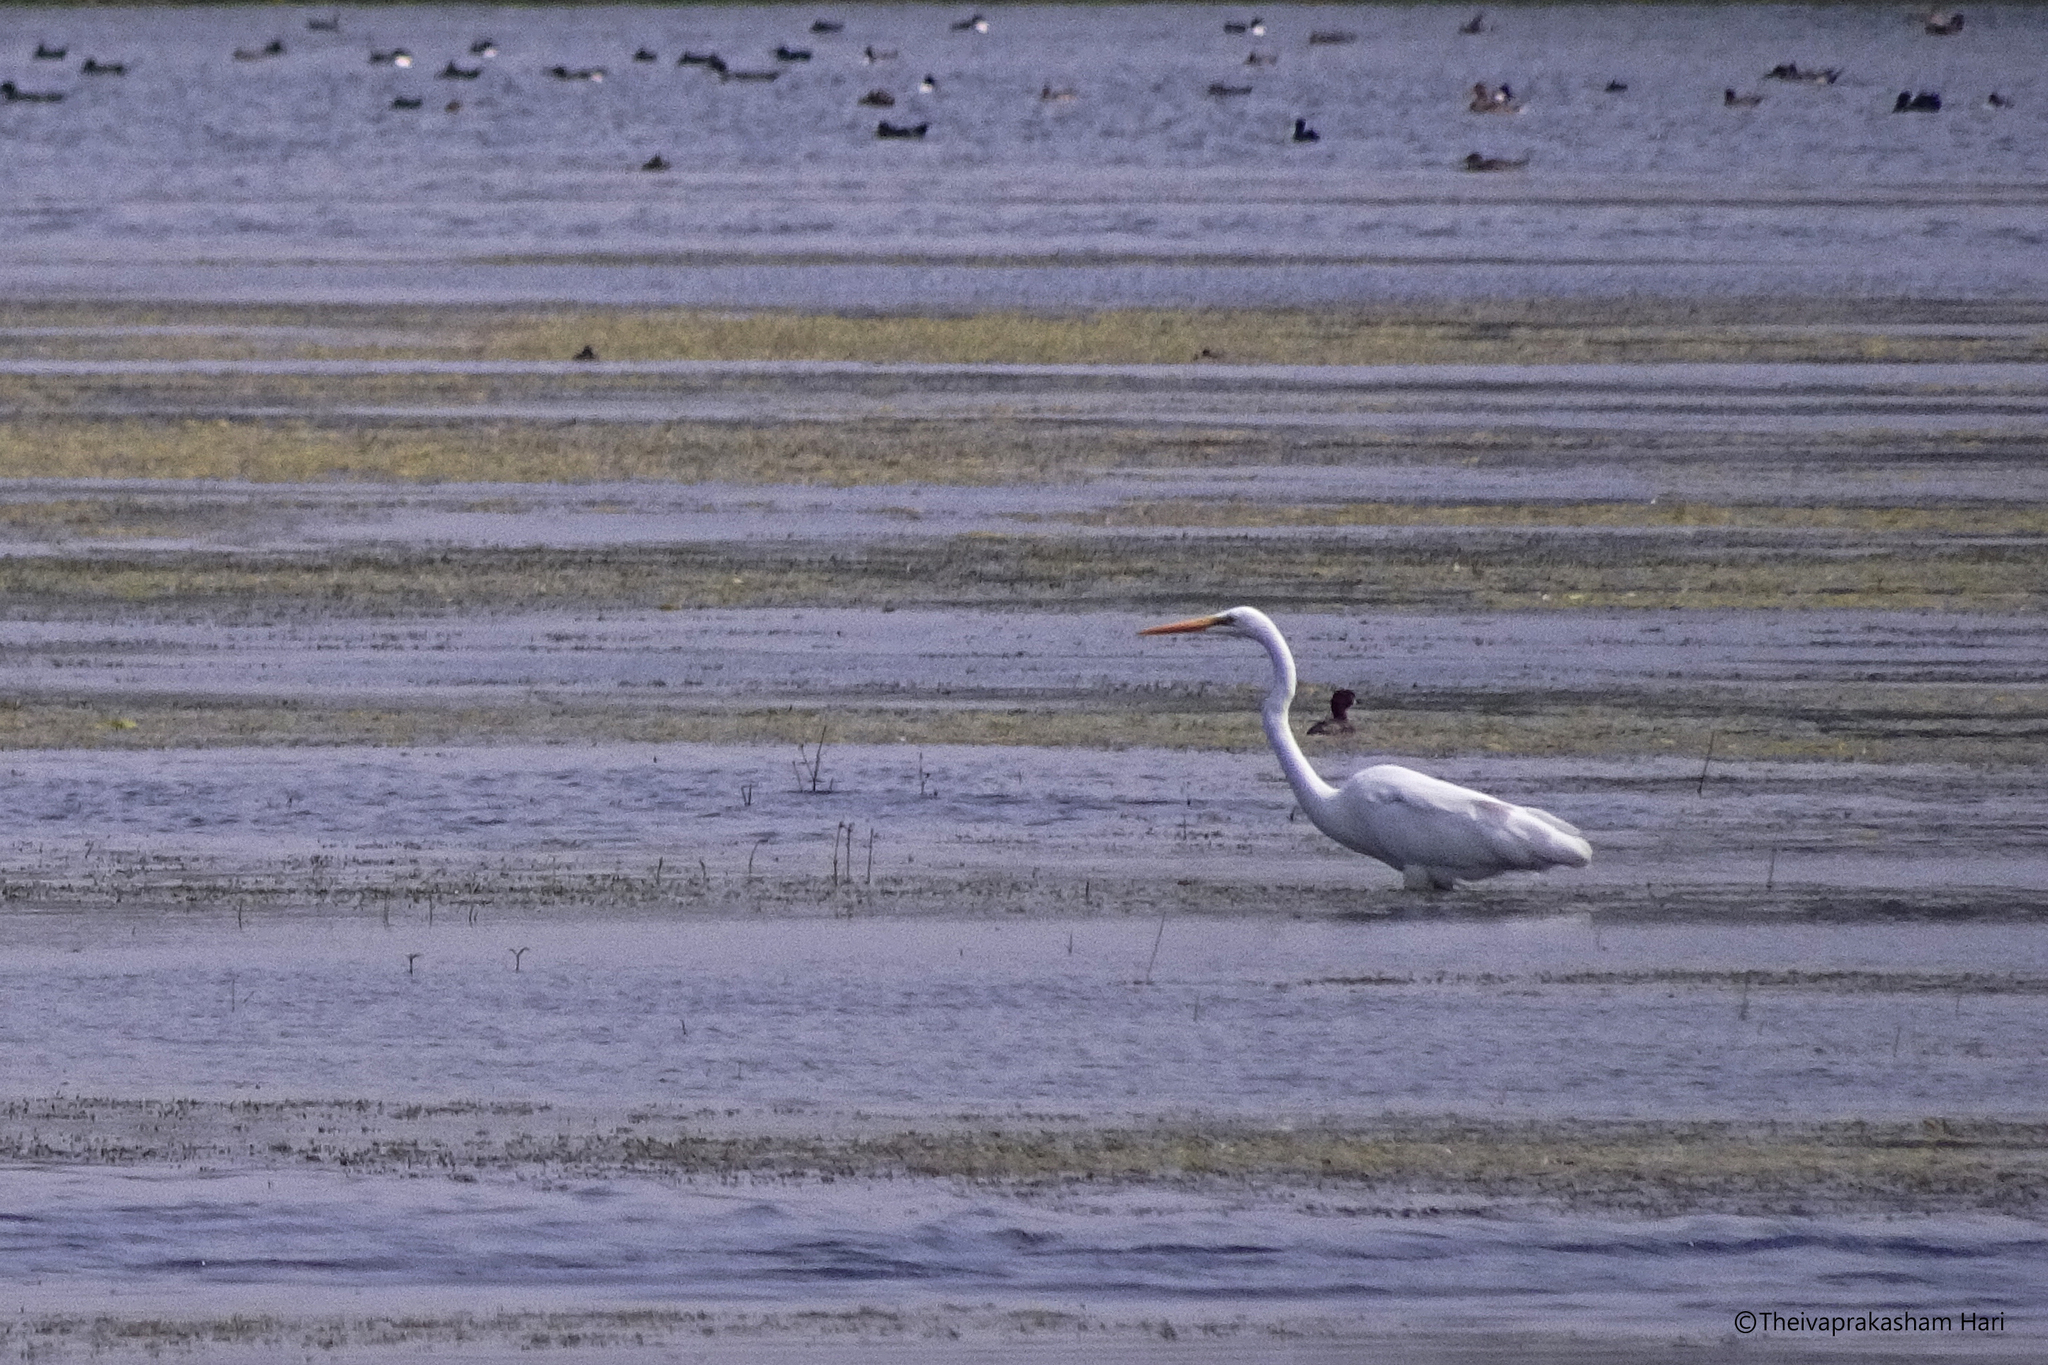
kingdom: Animalia
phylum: Chordata
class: Aves
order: Pelecaniformes
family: Ardeidae
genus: Ardea
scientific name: Ardea alba
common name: Great egret
